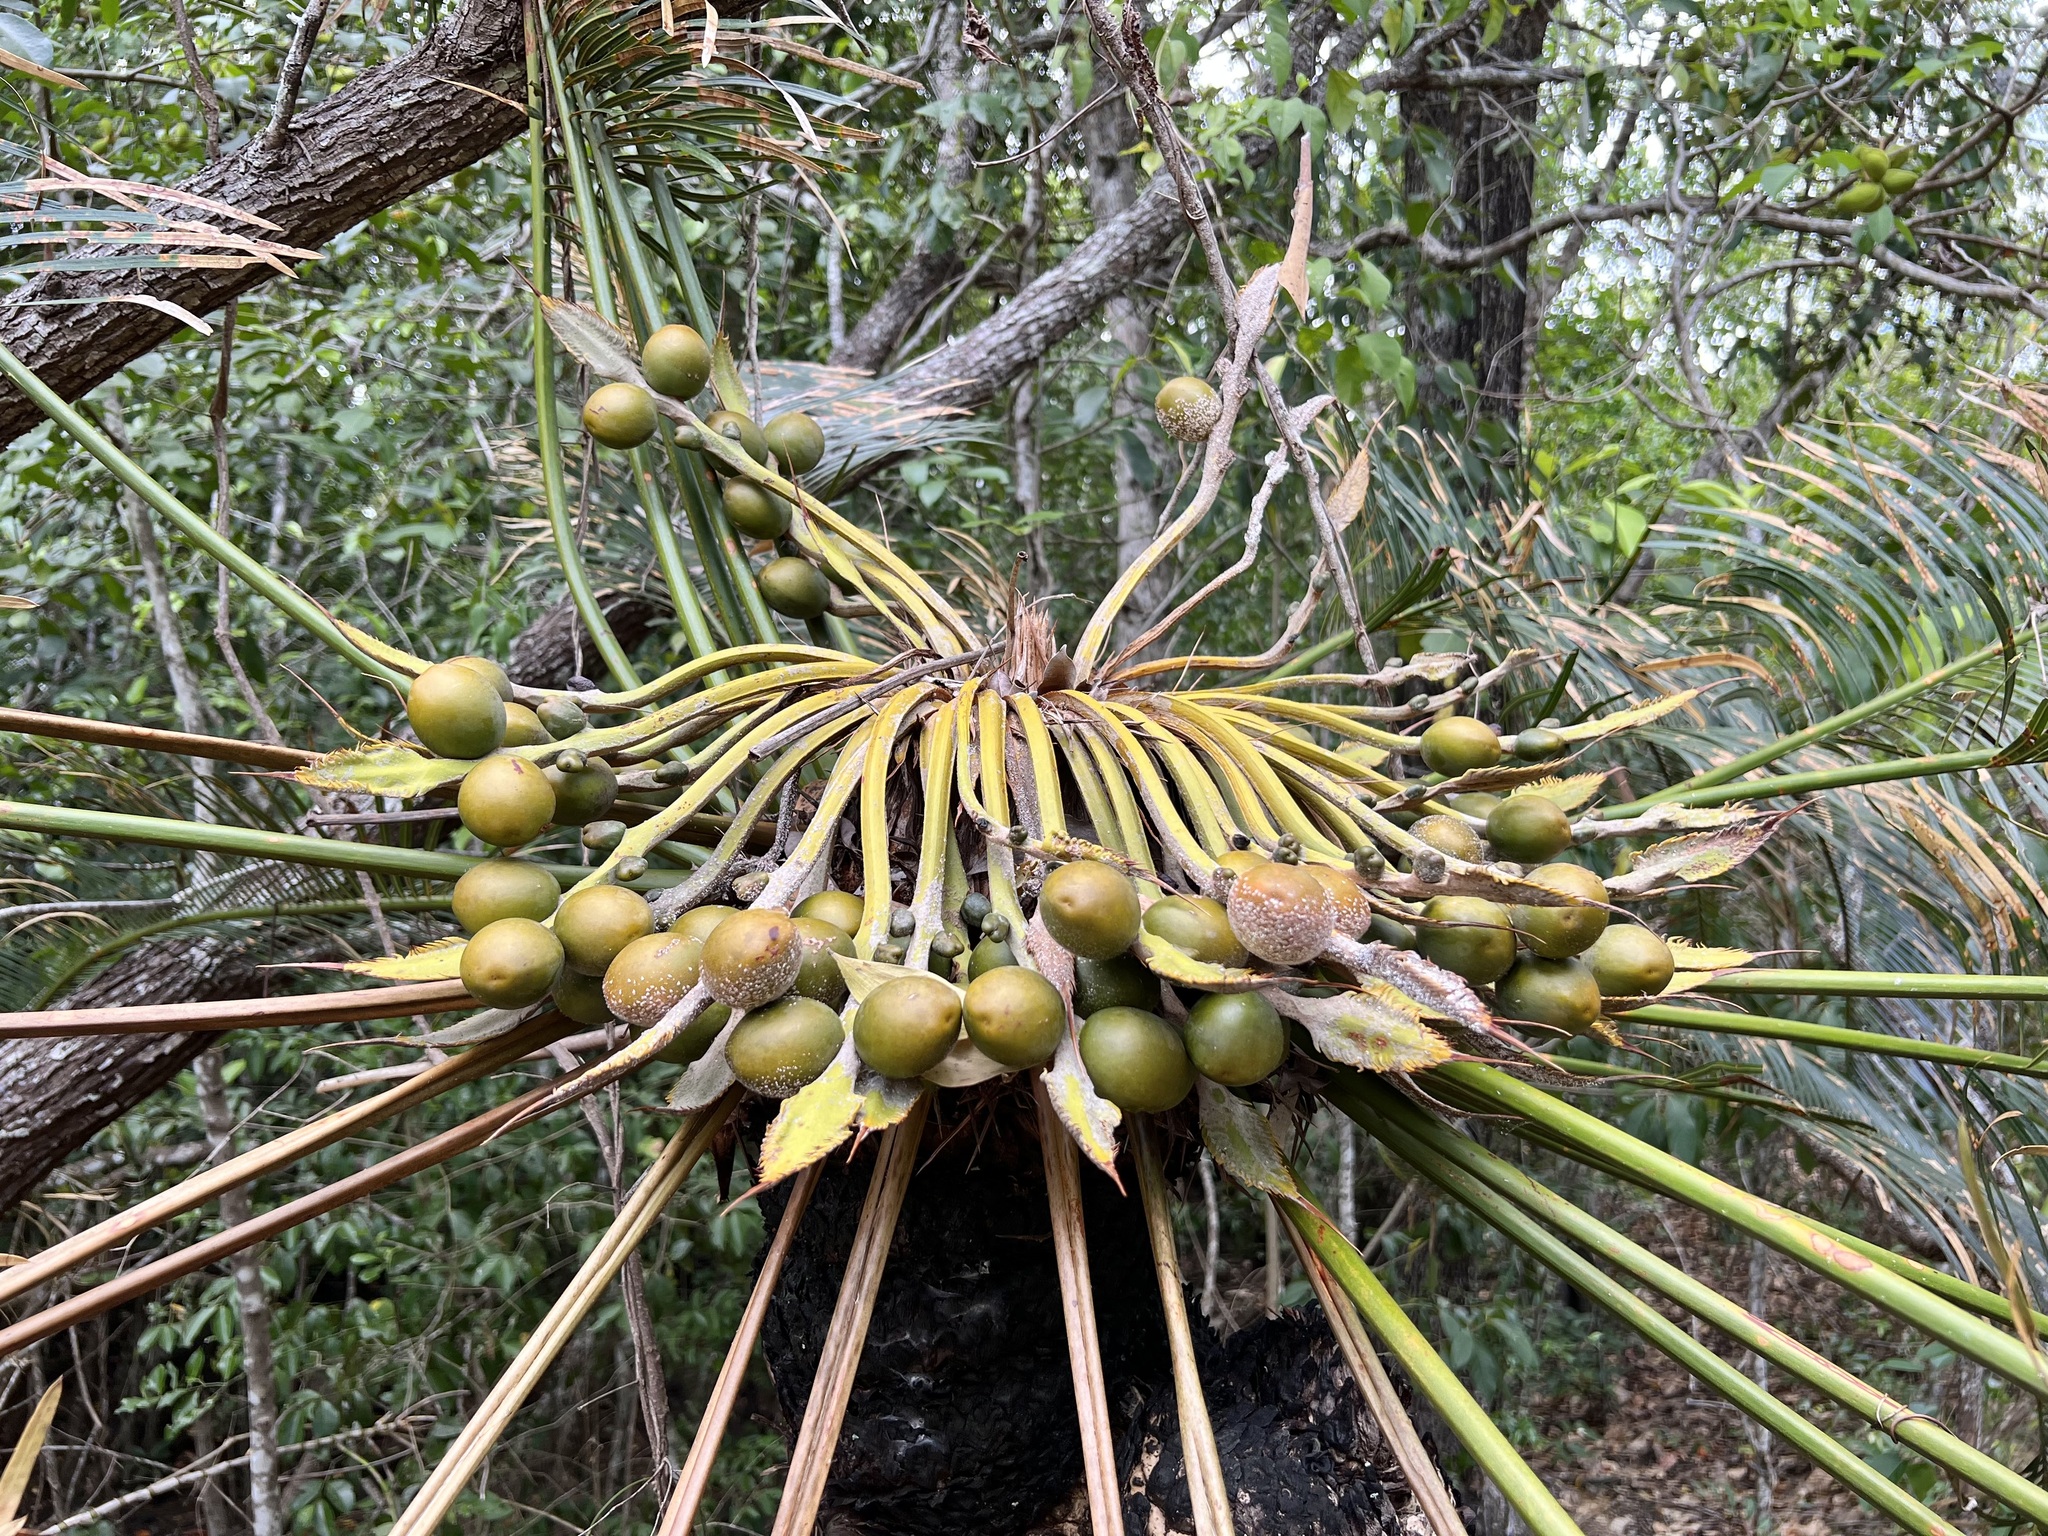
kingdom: Plantae
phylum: Tracheophyta
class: Cycadopsida
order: Cycadales
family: Cycadaceae
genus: Cycas
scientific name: Cycas media
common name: Queensland cycas
